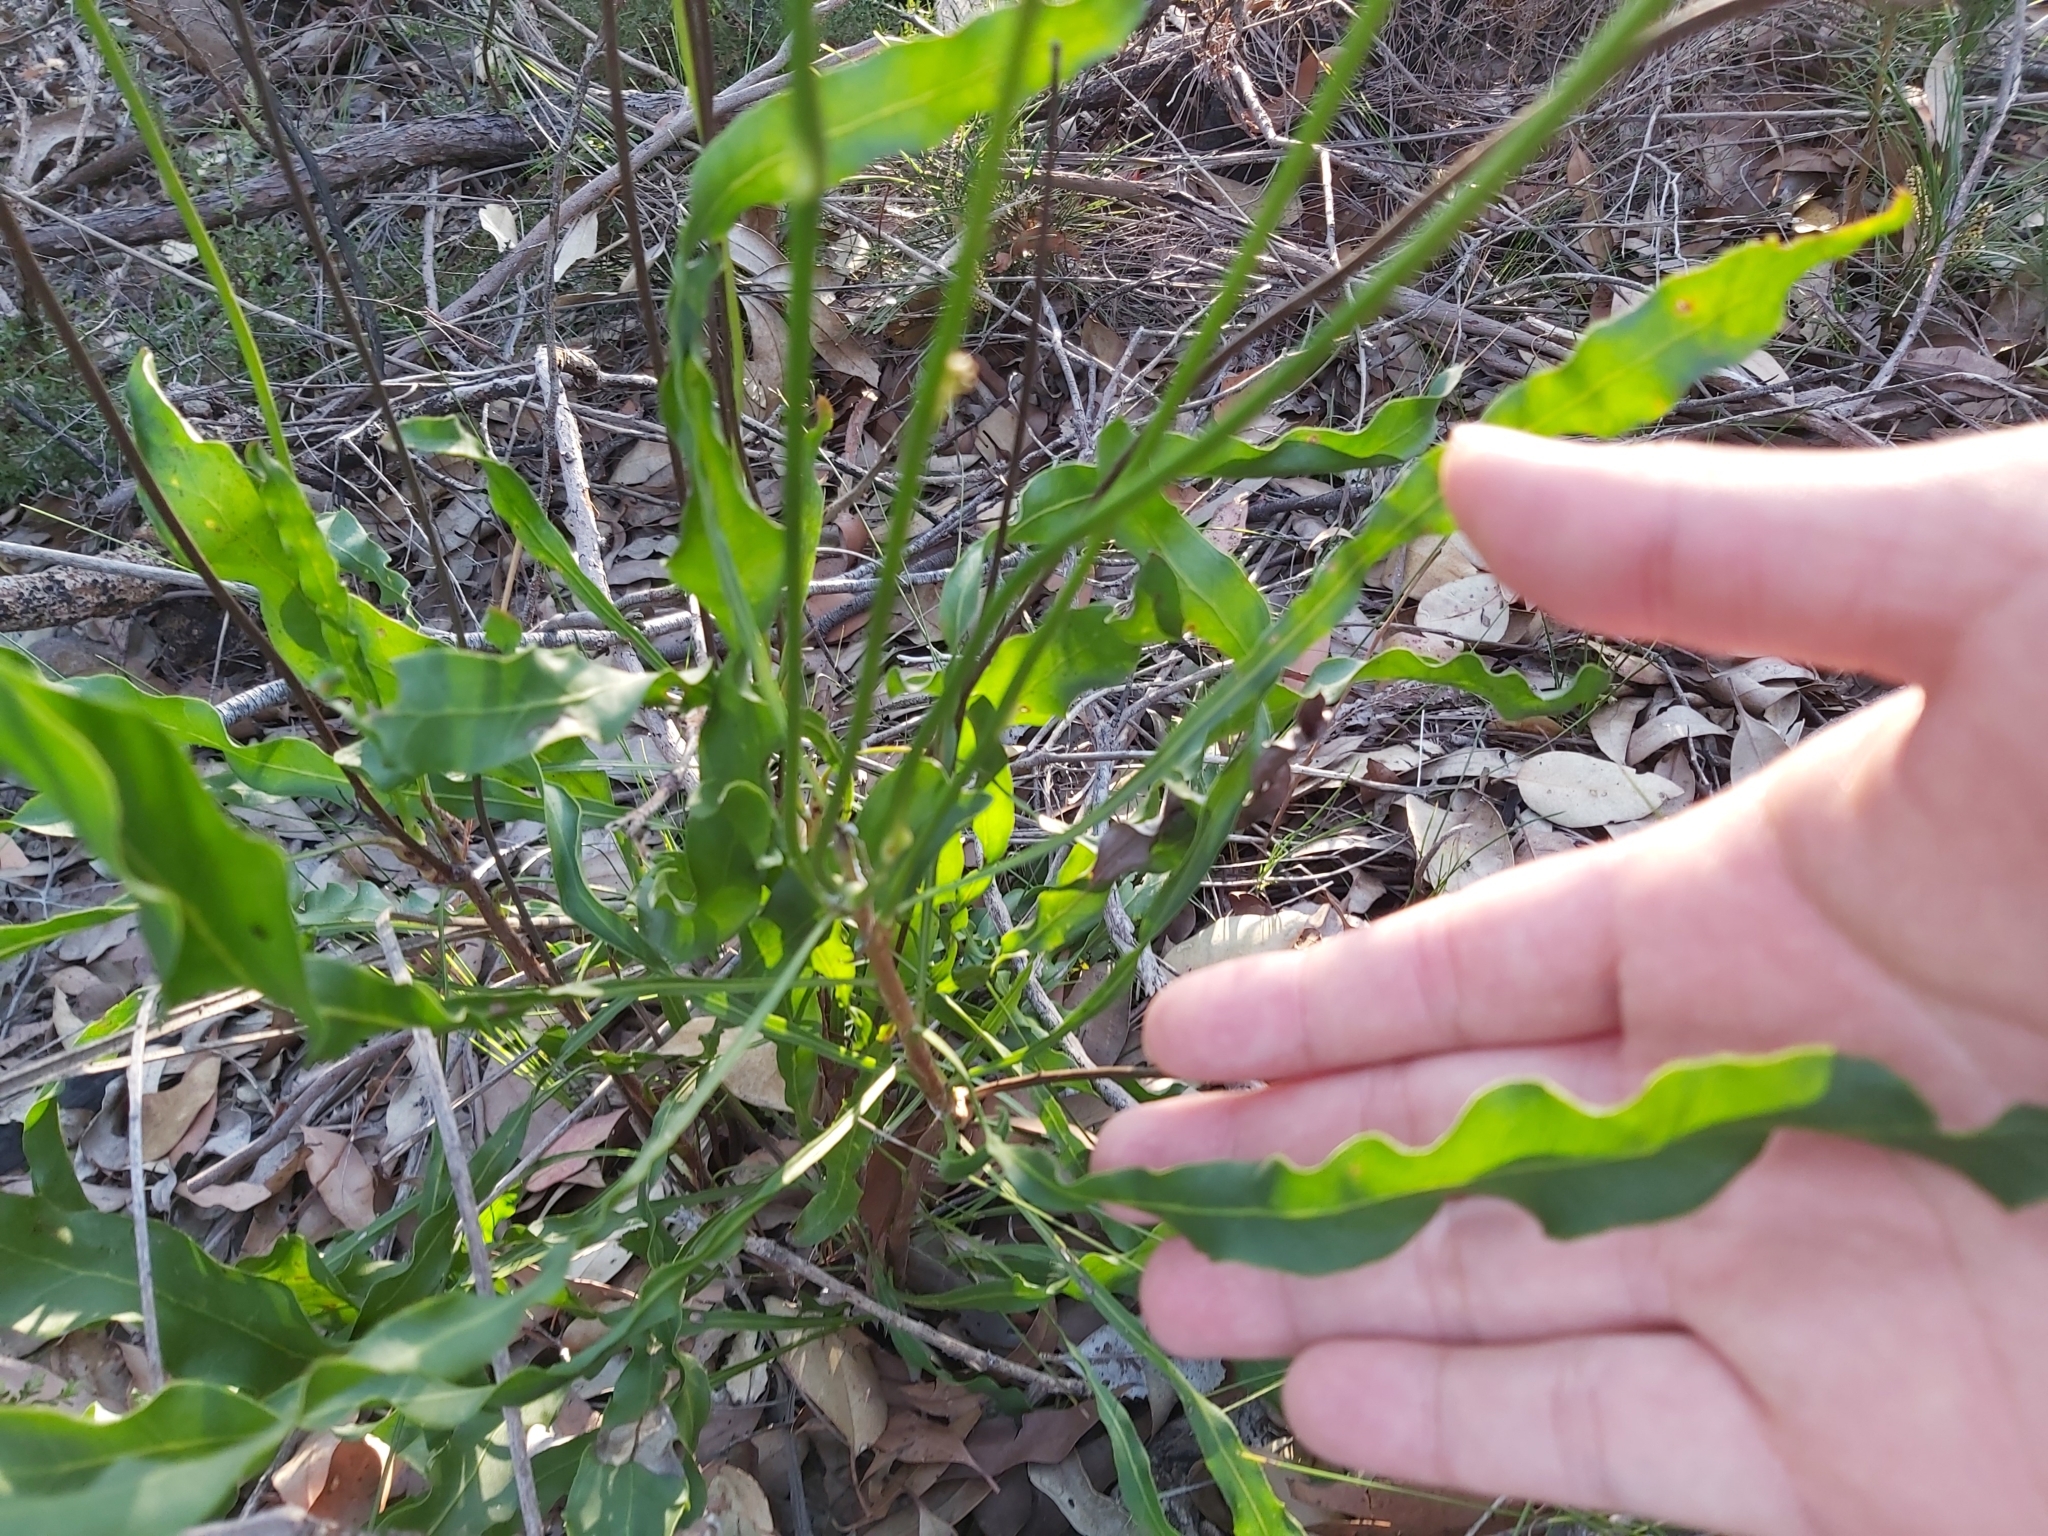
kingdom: Plantae
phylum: Tracheophyta
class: Magnoliopsida
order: Proteales
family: Proteaceae
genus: Conospermum
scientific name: Conospermum longifolium
